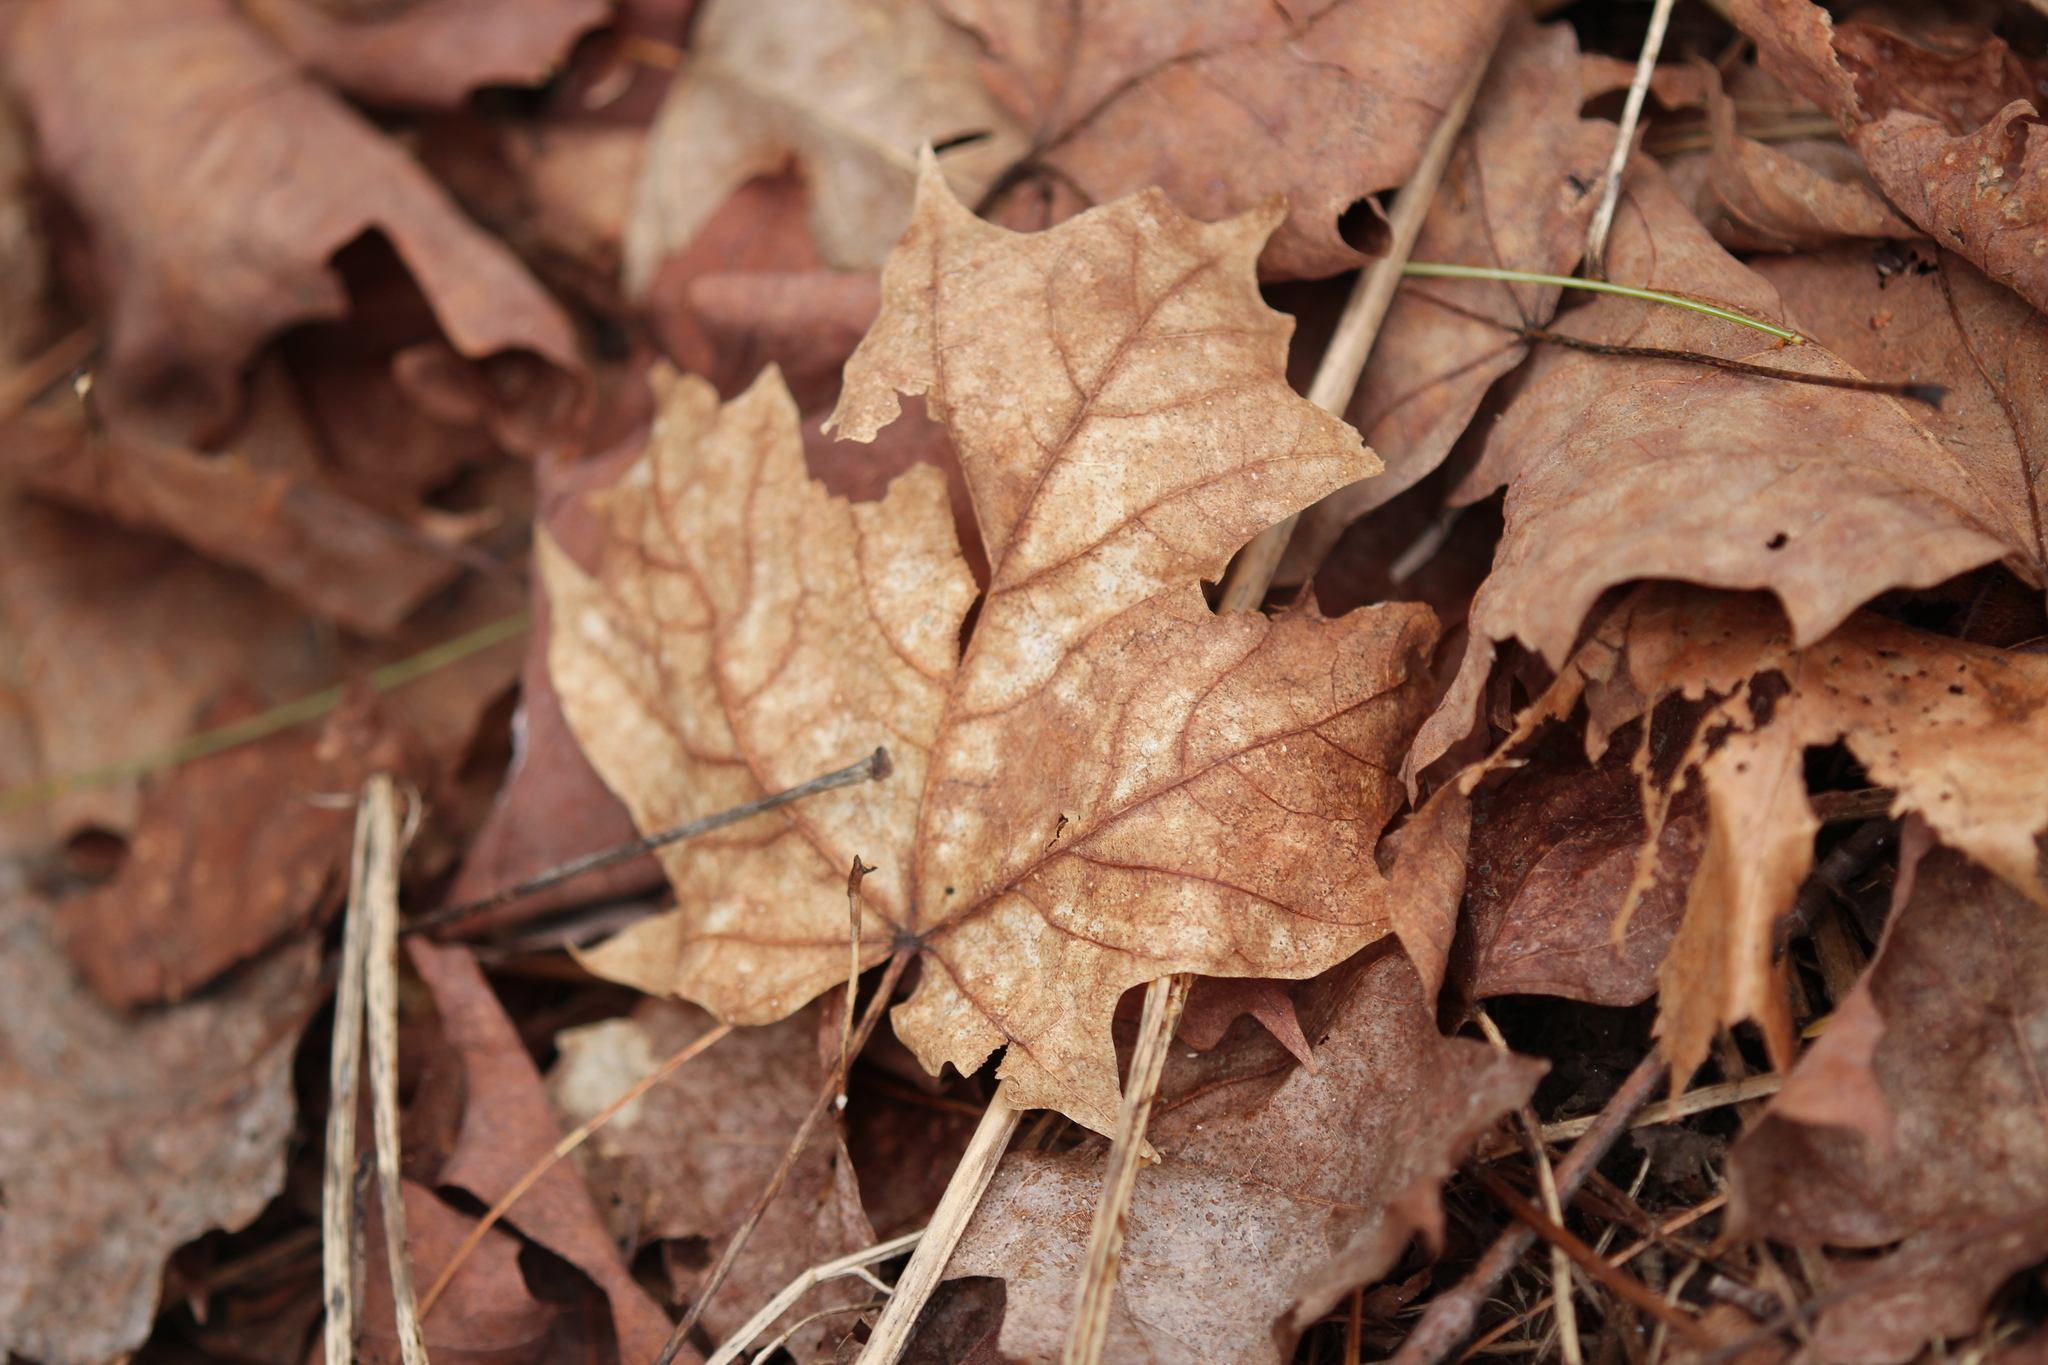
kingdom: Plantae
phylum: Tracheophyta
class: Magnoliopsida
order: Sapindales
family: Sapindaceae
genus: Acer
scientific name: Acer saccharum
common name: Sugar maple
